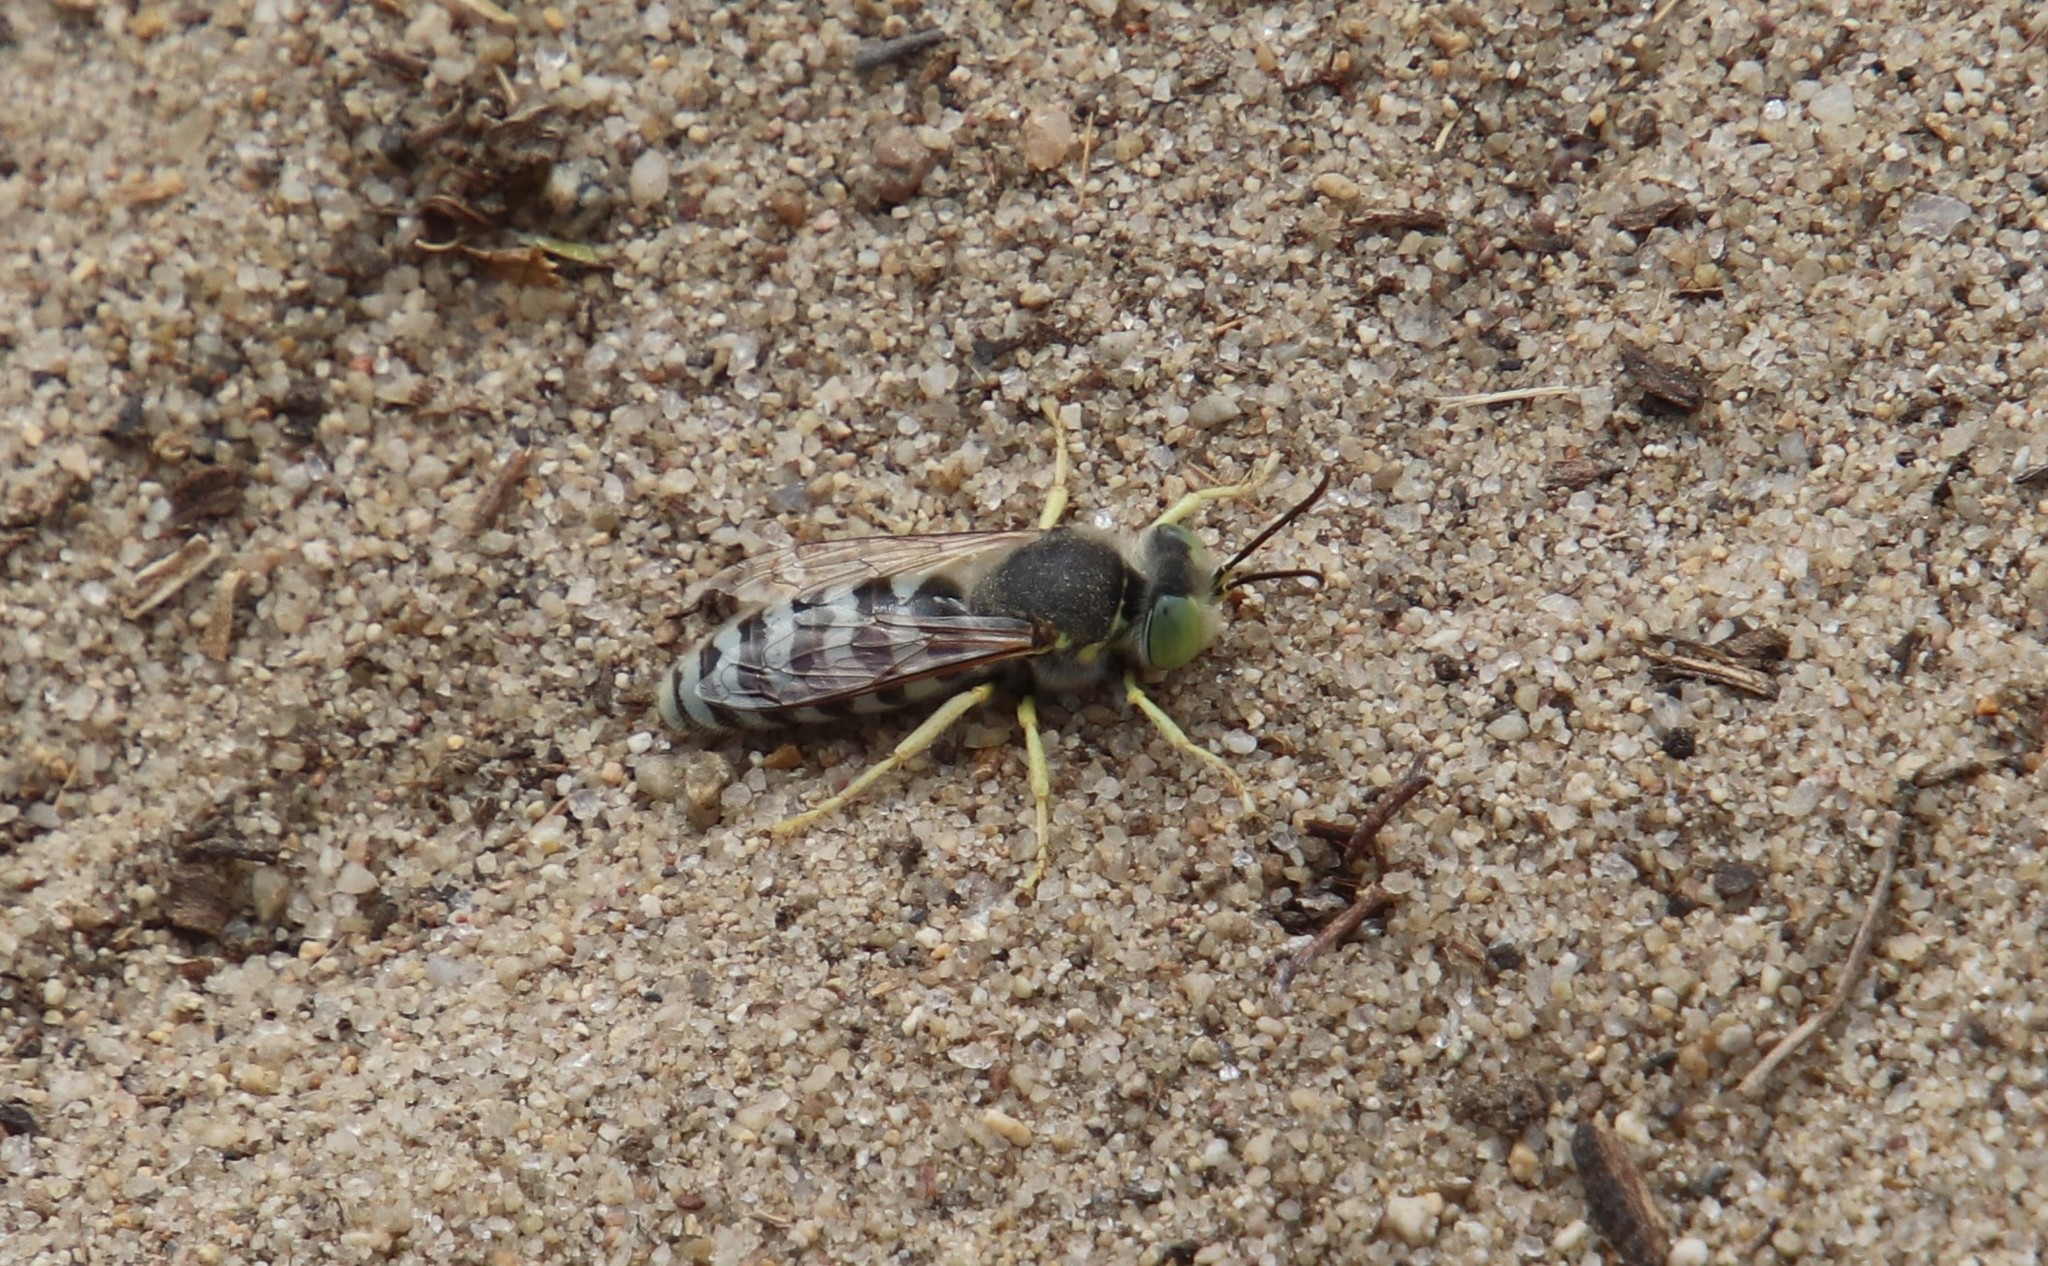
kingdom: Animalia
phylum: Arthropoda
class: Insecta
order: Hymenoptera
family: Crabronidae
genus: Bembix
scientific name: Bembix americana
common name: American sand wasp
